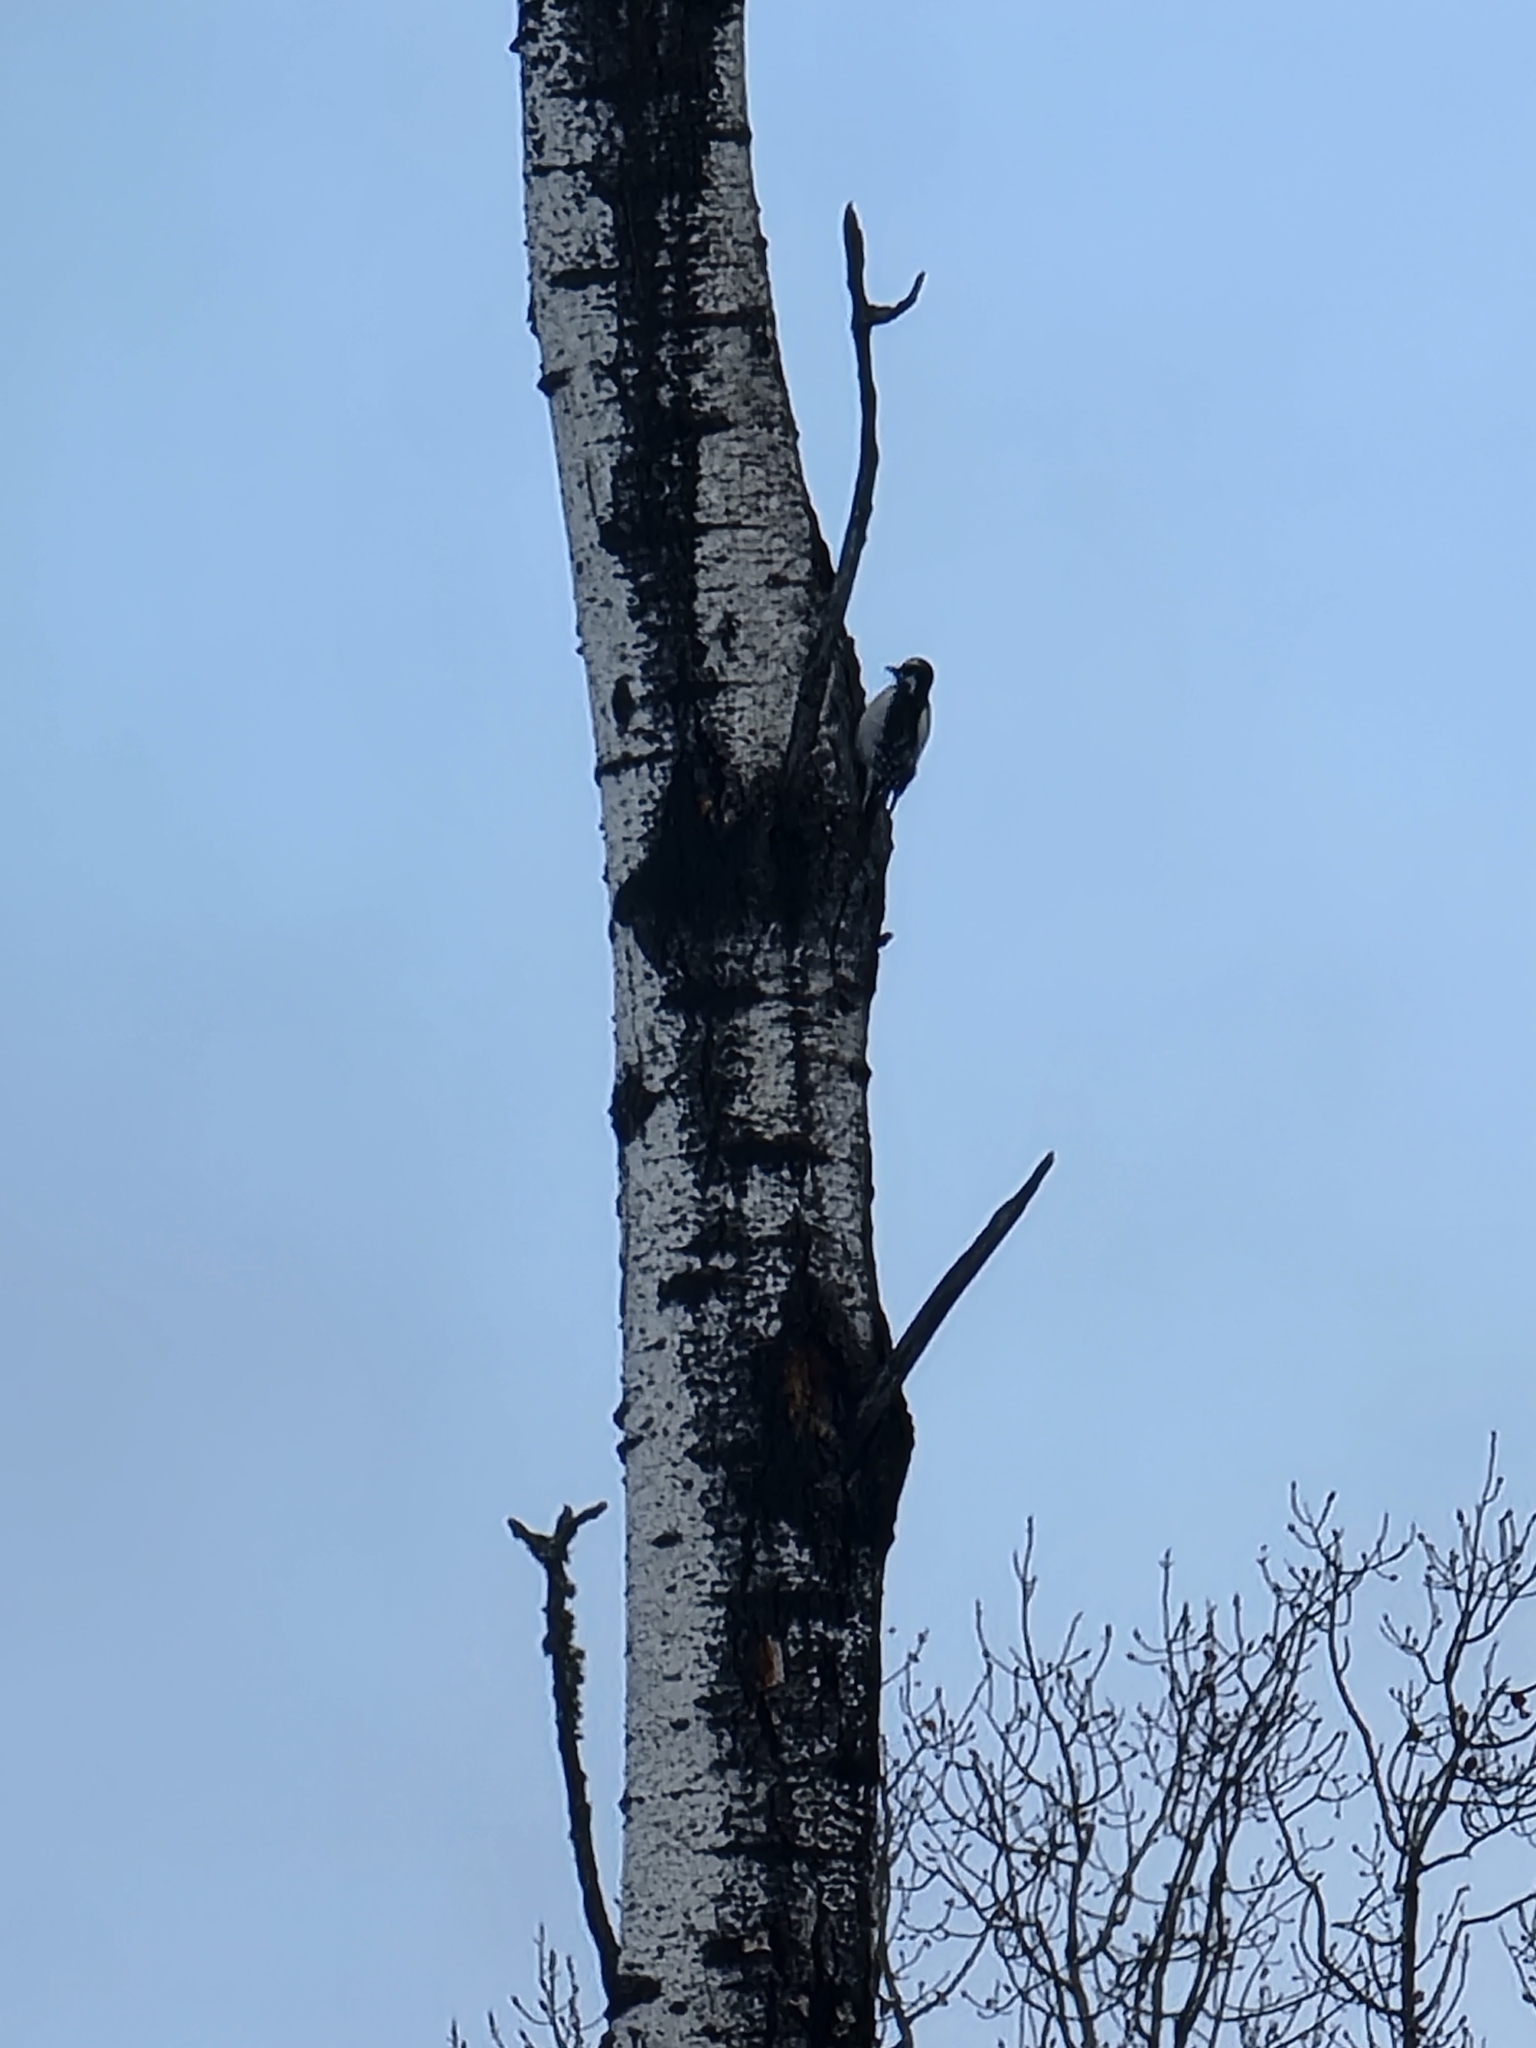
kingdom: Animalia
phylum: Chordata
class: Aves
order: Piciformes
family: Picidae
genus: Leuconotopicus
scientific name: Leuconotopicus villosus
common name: Hairy woodpecker
